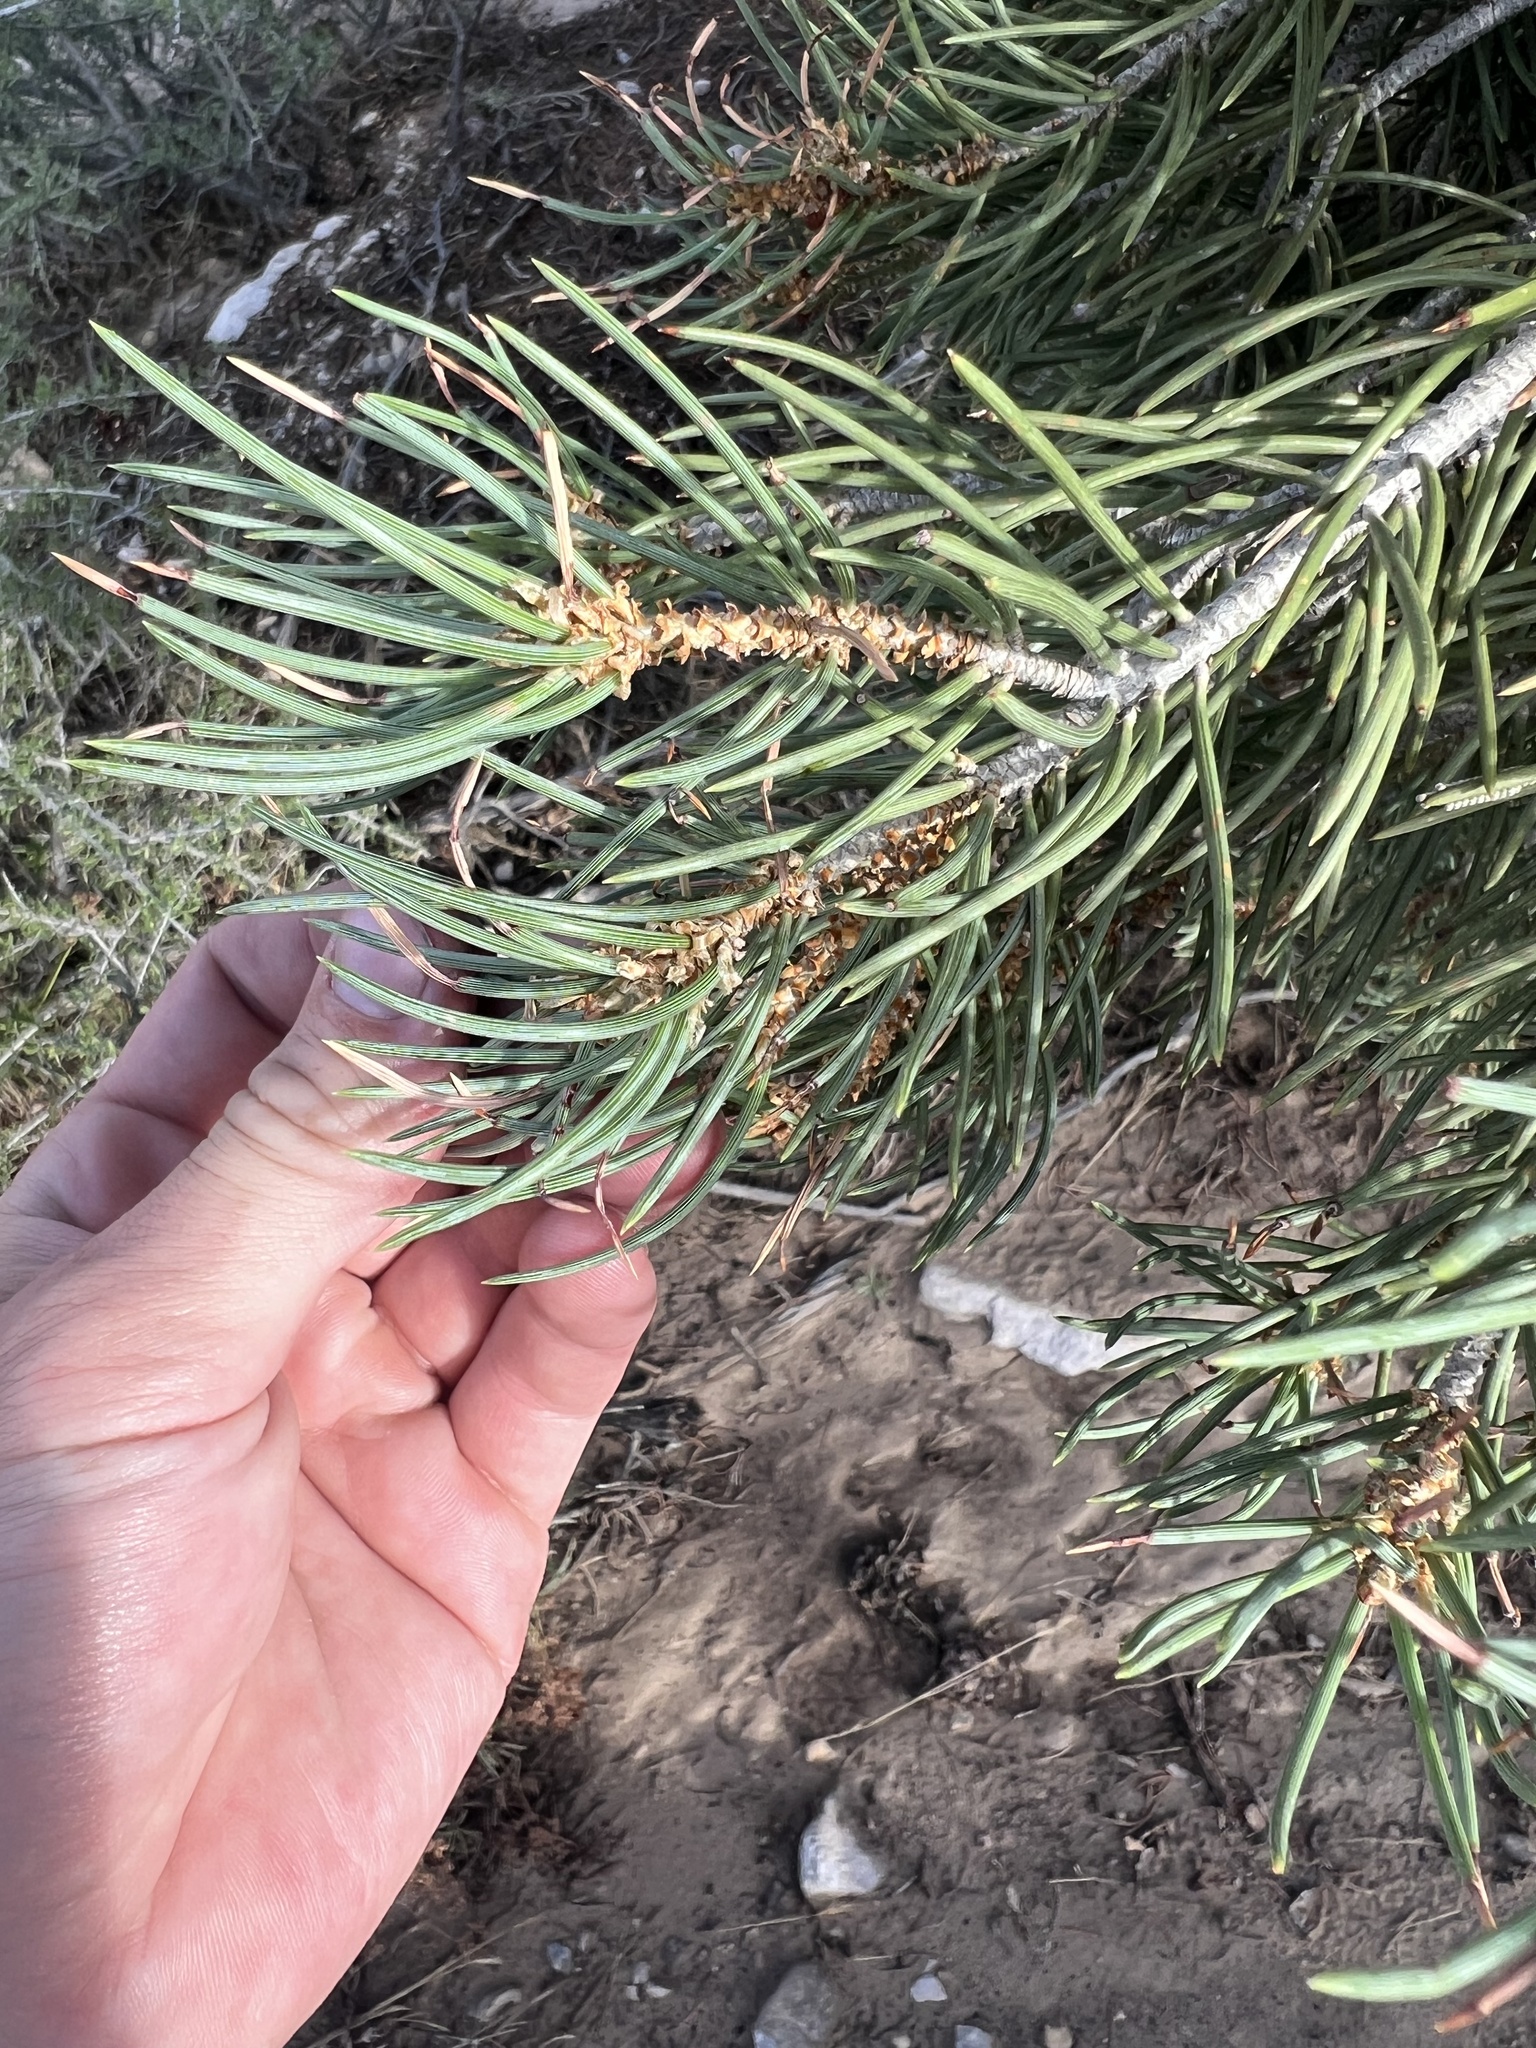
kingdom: Plantae
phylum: Tracheophyta
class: Pinopsida
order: Pinales
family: Pinaceae
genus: Pinus
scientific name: Pinus monophylla
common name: One-leaved nut pine
